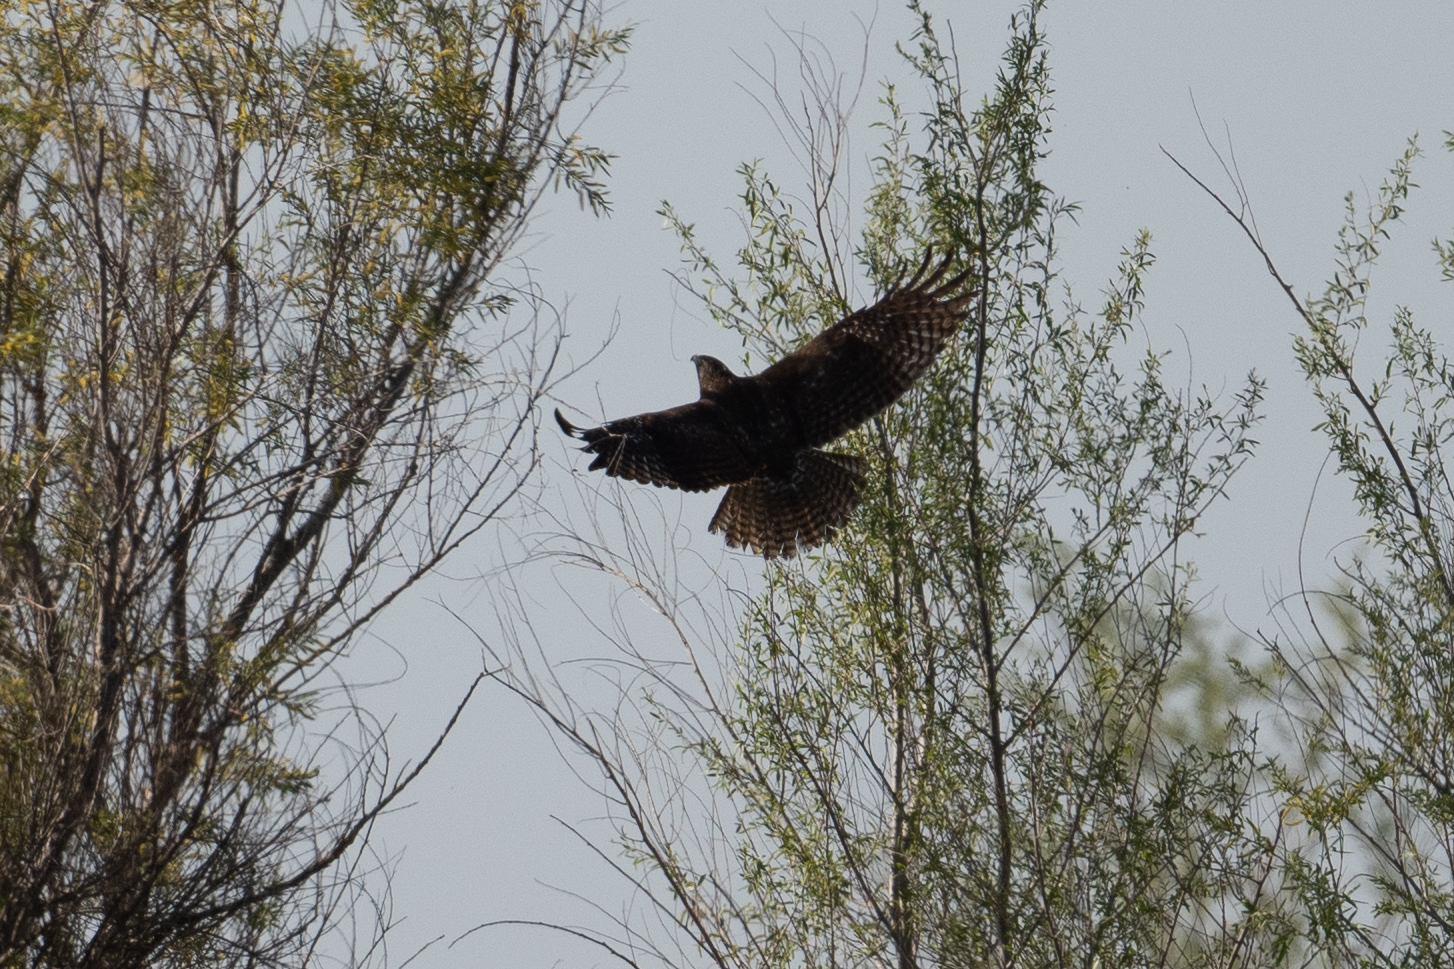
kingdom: Animalia
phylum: Chordata
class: Aves
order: Accipitriformes
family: Accipitridae
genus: Buteo
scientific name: Buteo jamaicensis
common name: Red-tailed hawk
